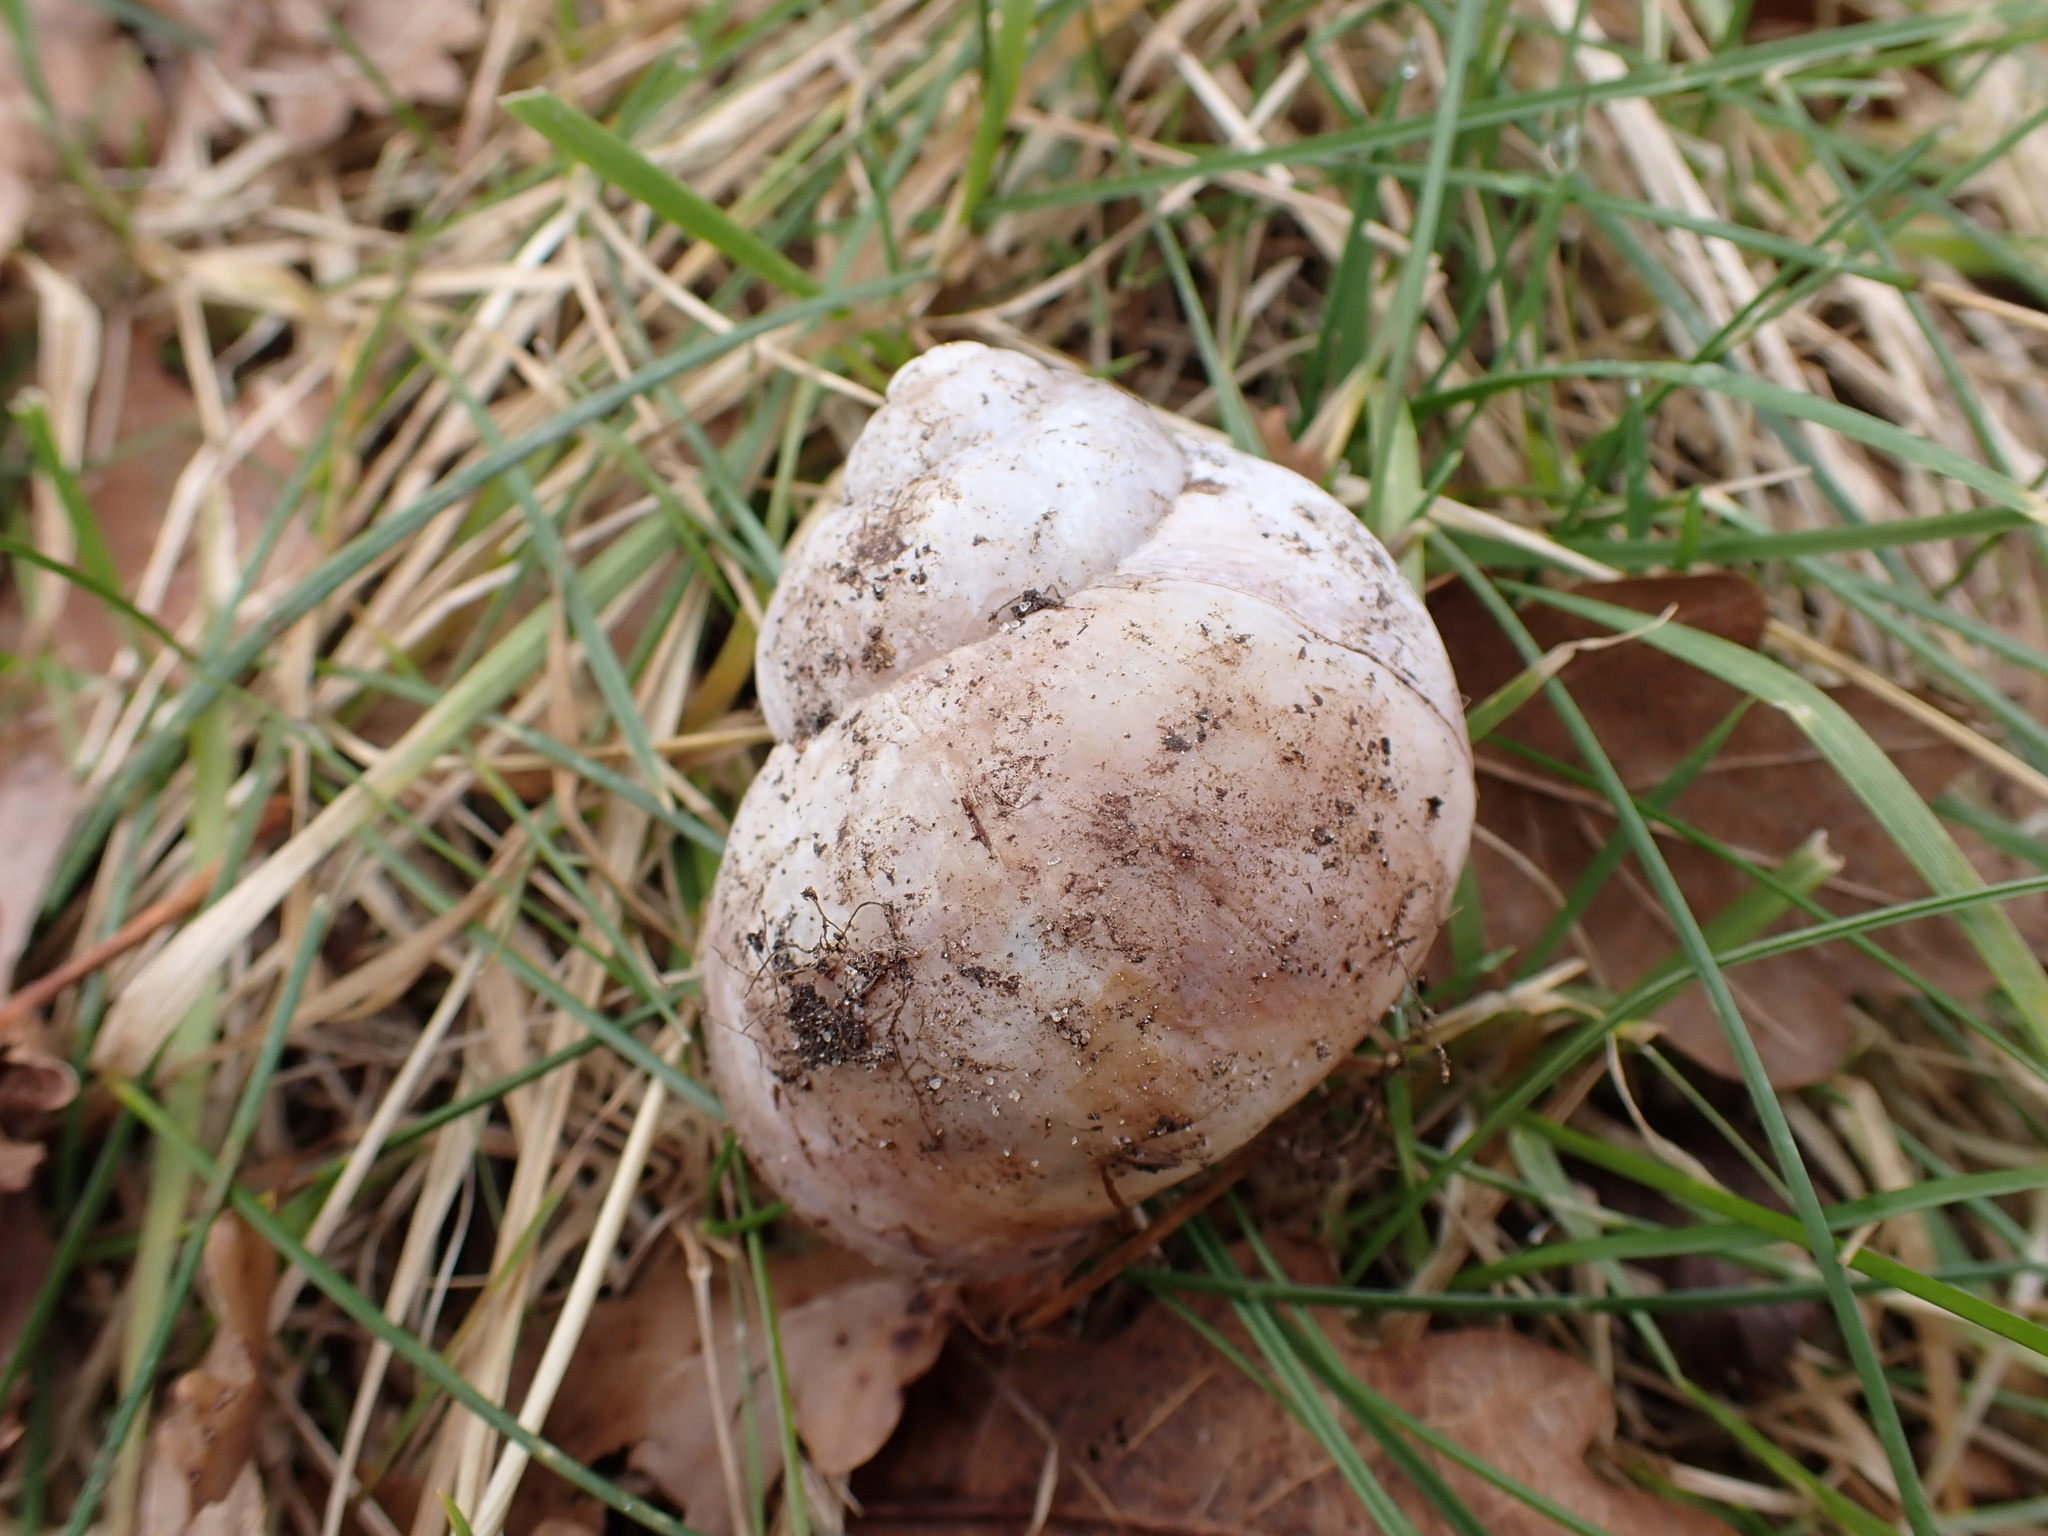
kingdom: Animalia
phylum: Mollusca
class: Gastropoda
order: Stylommatophora
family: Helicidae
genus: Helix
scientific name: Helix pomatia
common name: Roman snail
